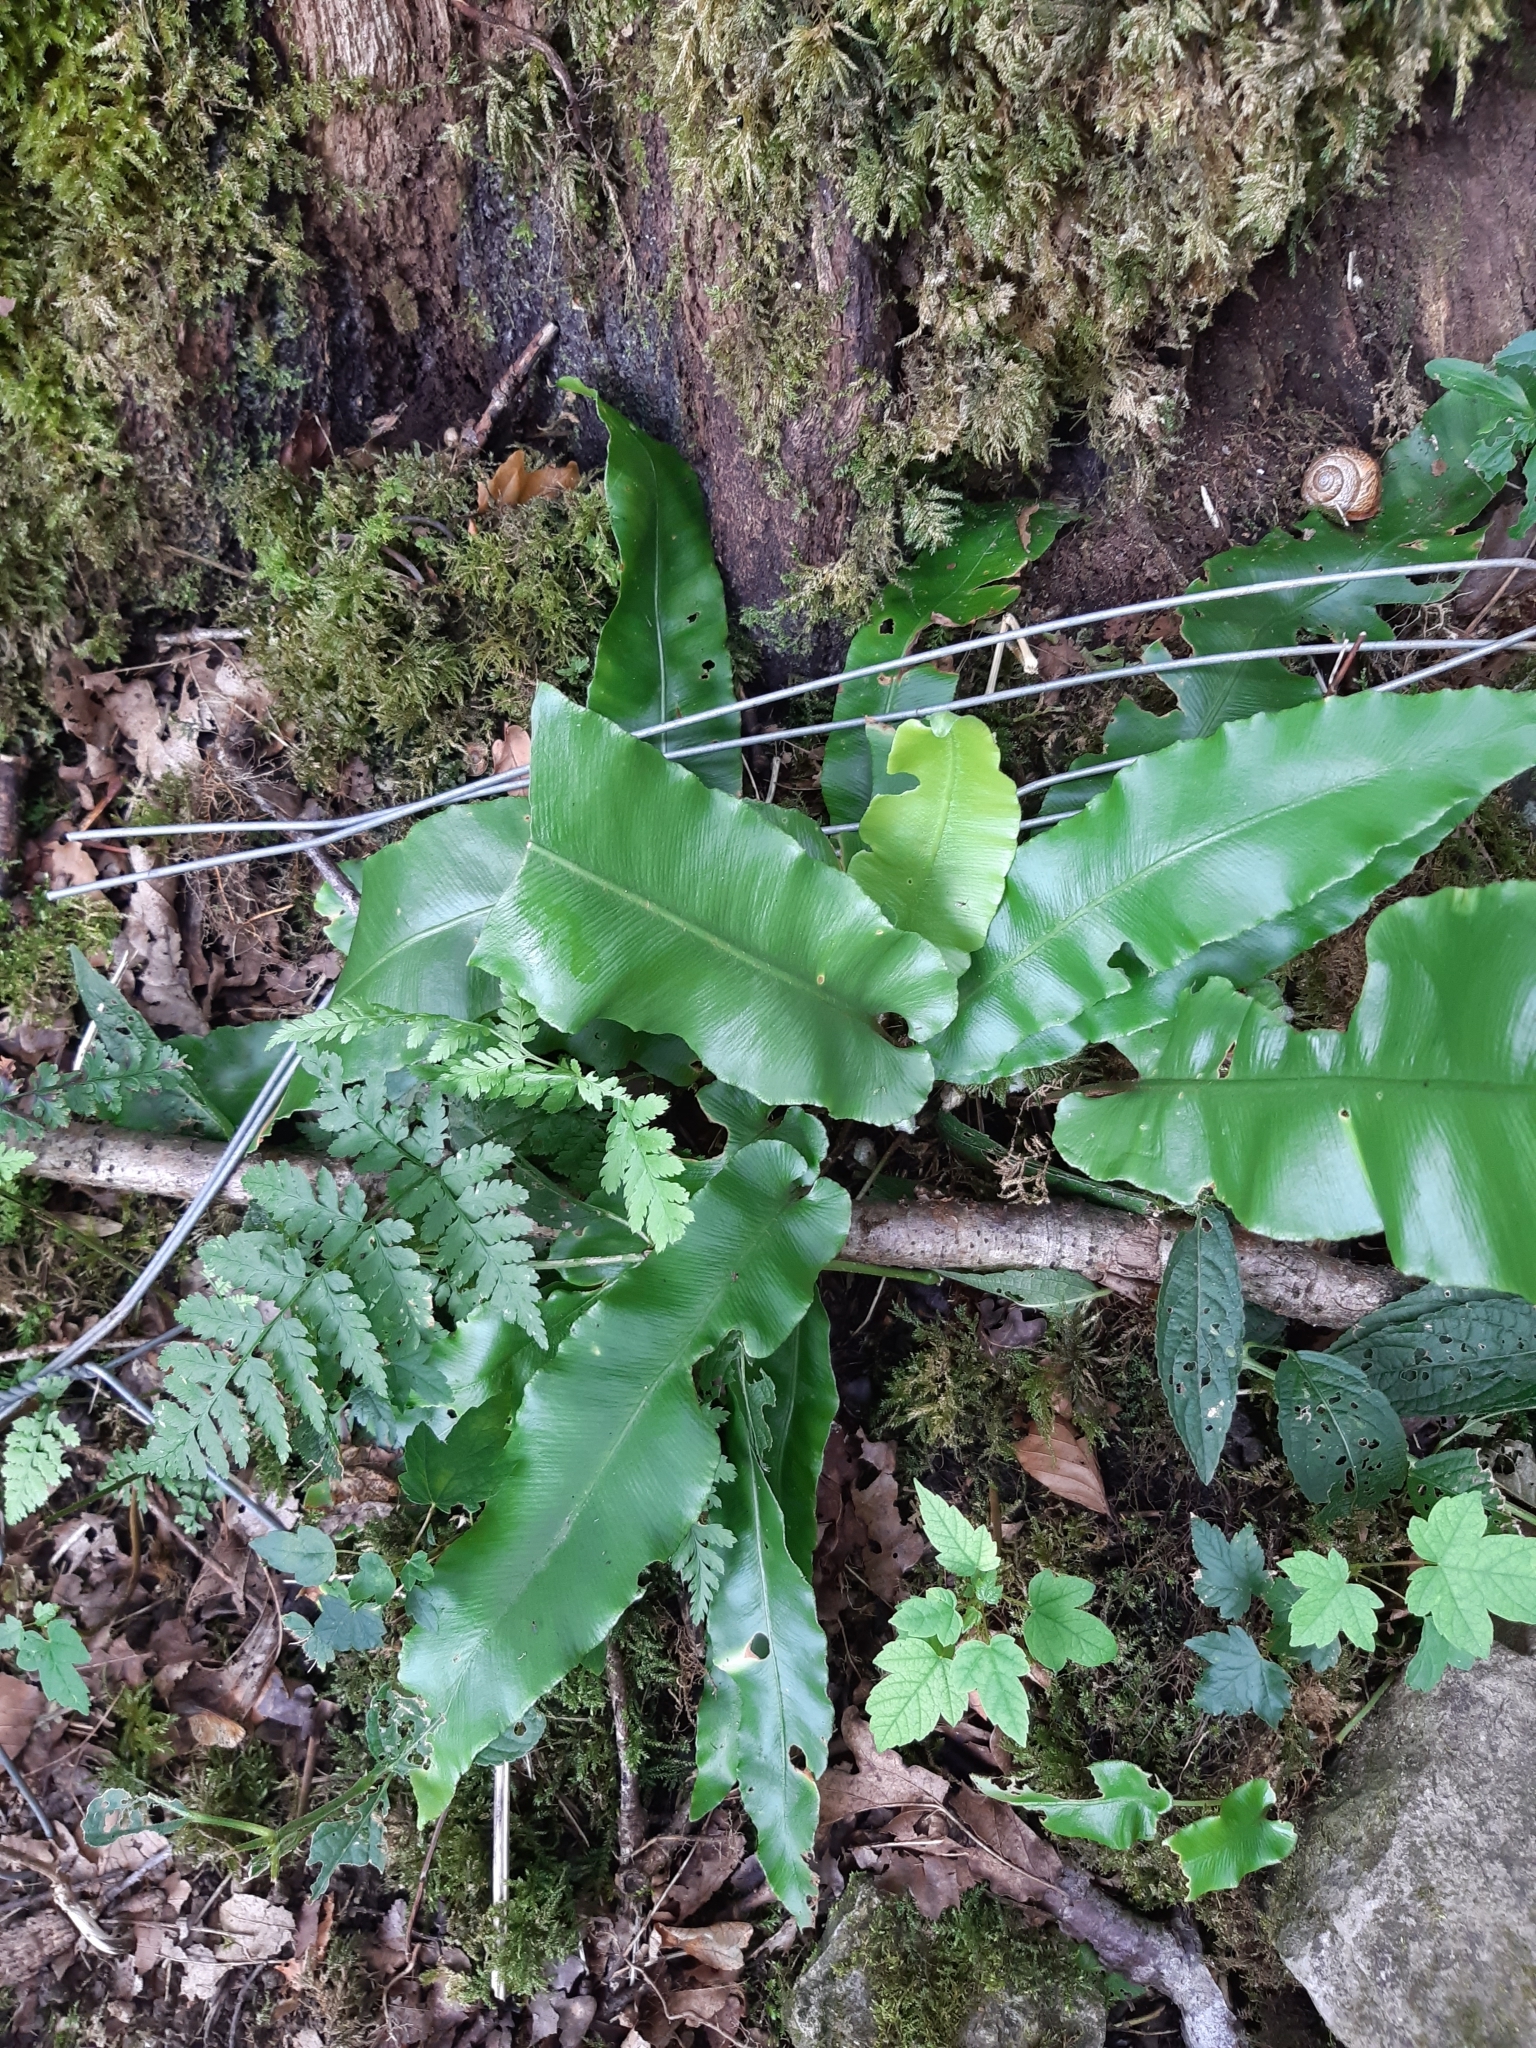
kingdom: Plantae
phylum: Tracheophyta
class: Polypodiopsida
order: Polypodiales
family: Aspleniaceae
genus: Asplenium
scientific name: Asplenium scolopendrium
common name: Hart's-tongue fern
